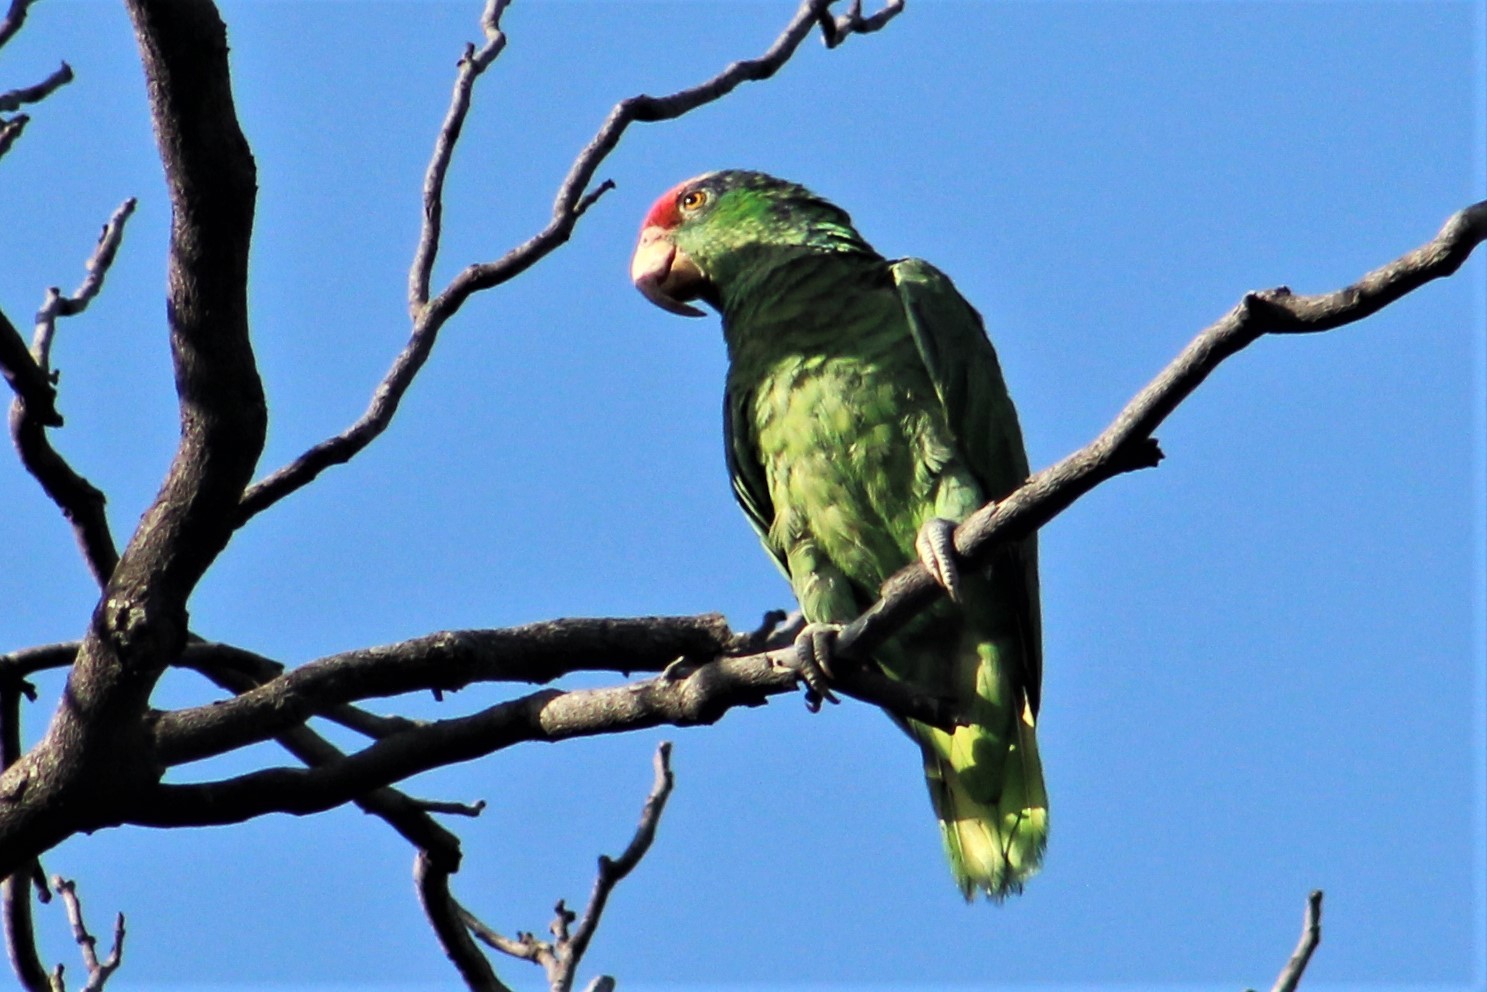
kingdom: Animalia
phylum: Chordata
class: Aves
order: Psittaciformes
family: Psittacidae
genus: Amazona
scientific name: Amazona viridigenalis
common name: Red-crowned amazon
